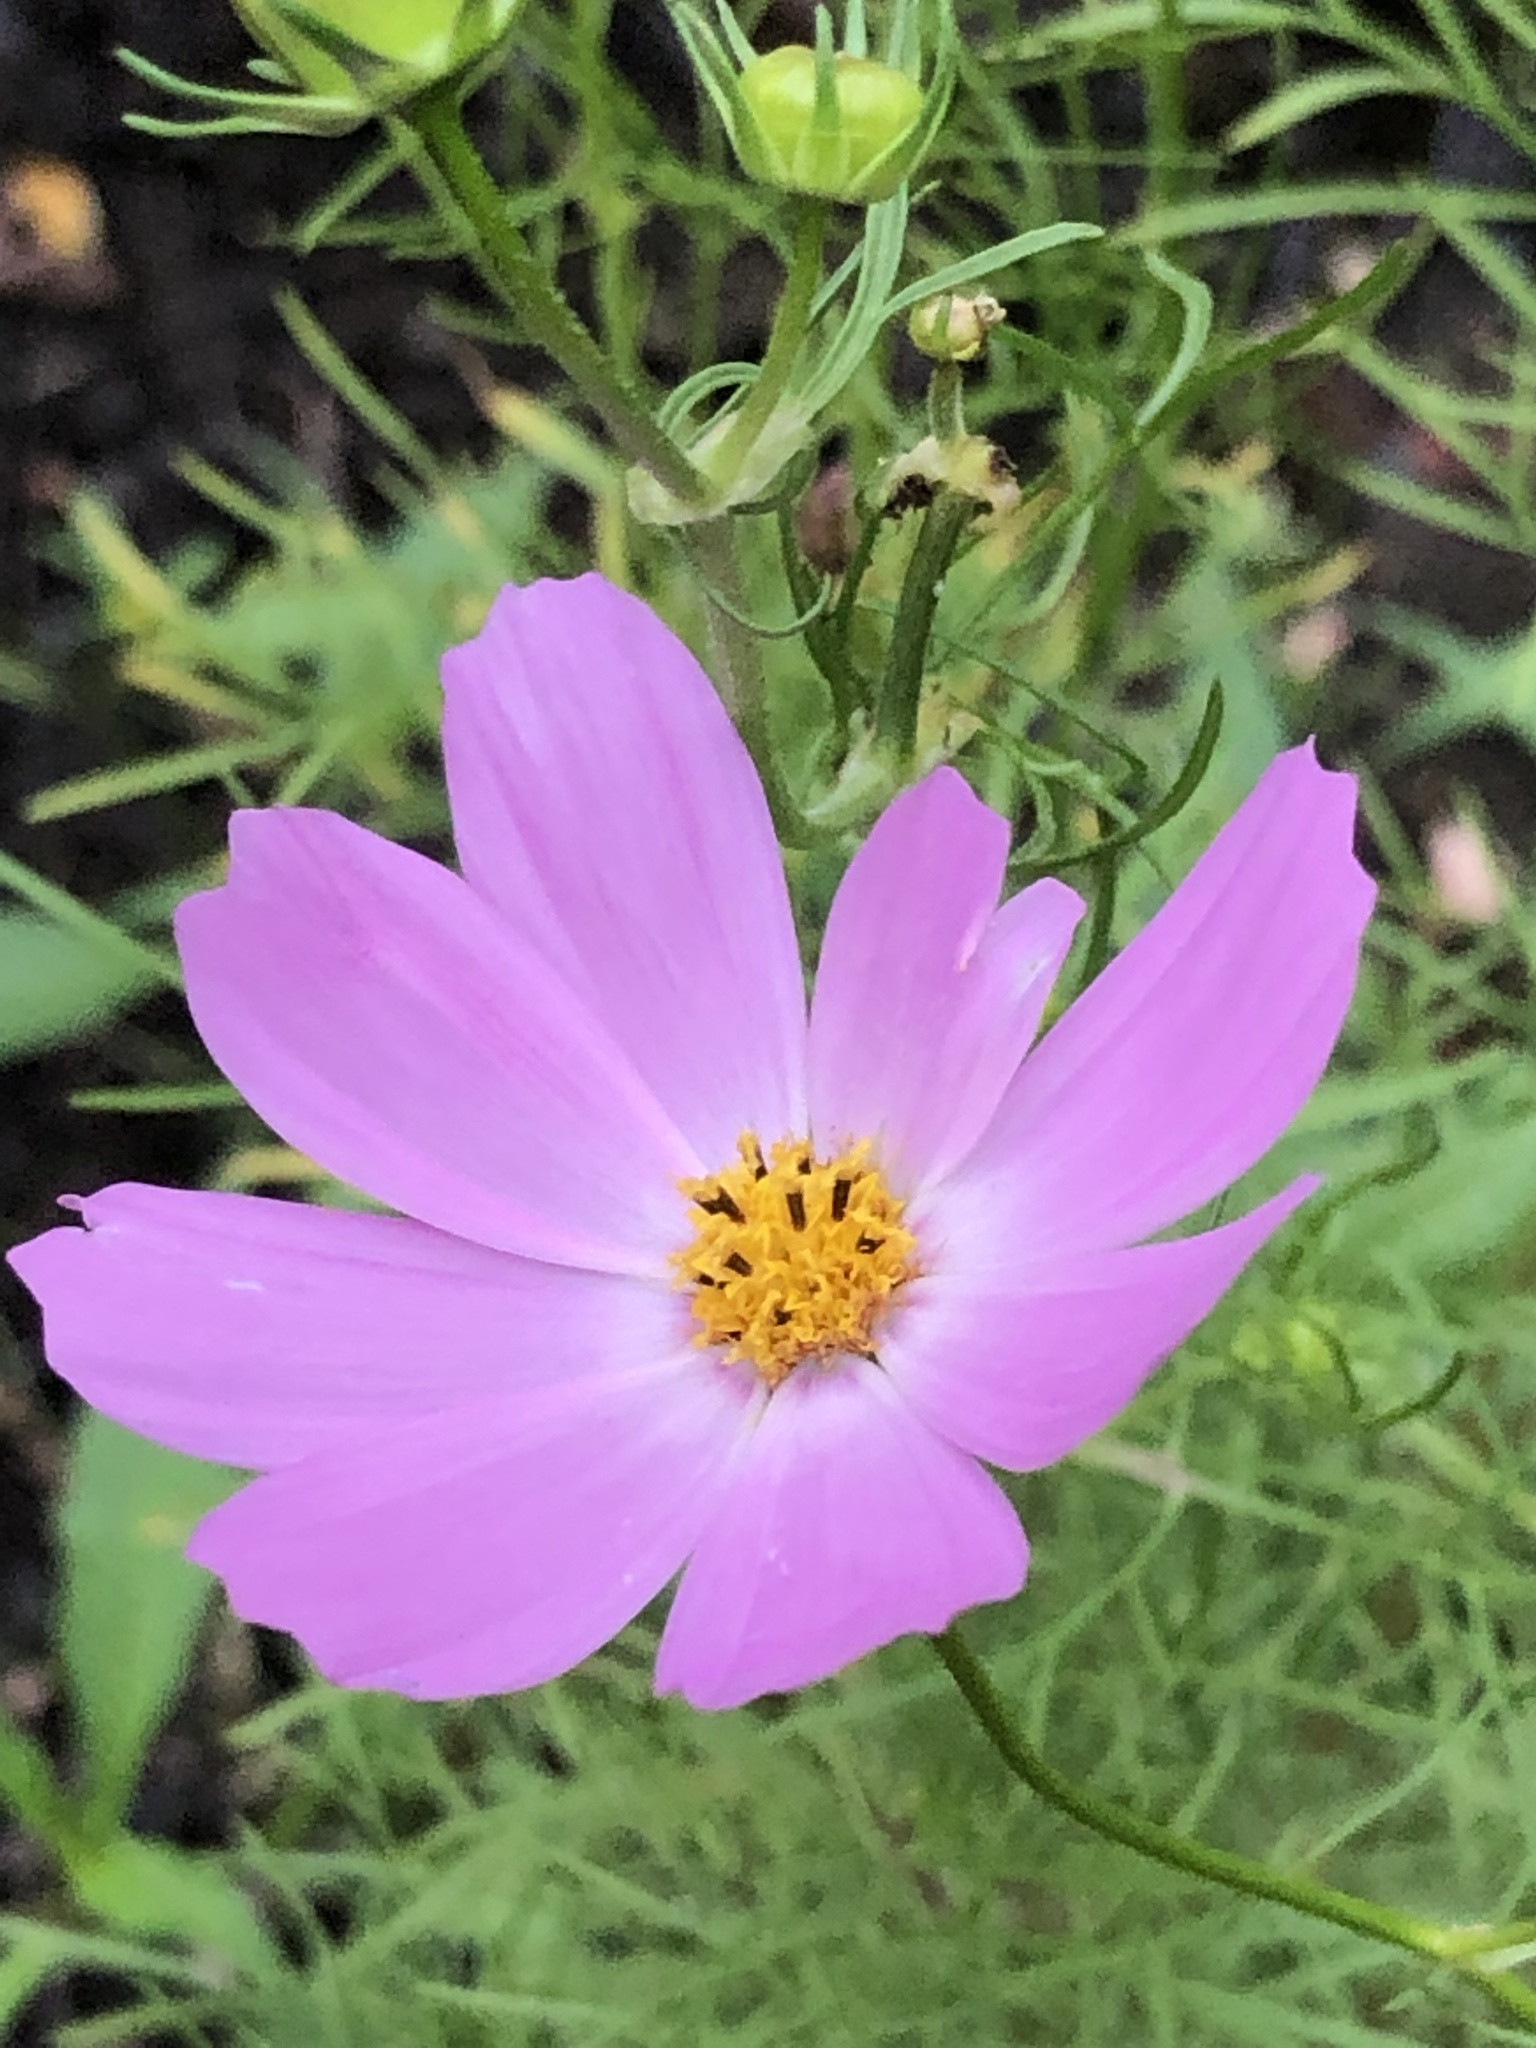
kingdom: Plantae
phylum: Tracheophyta
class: Magnoliopsida
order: Asterales
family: Asteraceae
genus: Cosmos
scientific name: Cosmos bipinnatus
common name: Garden cosmos
